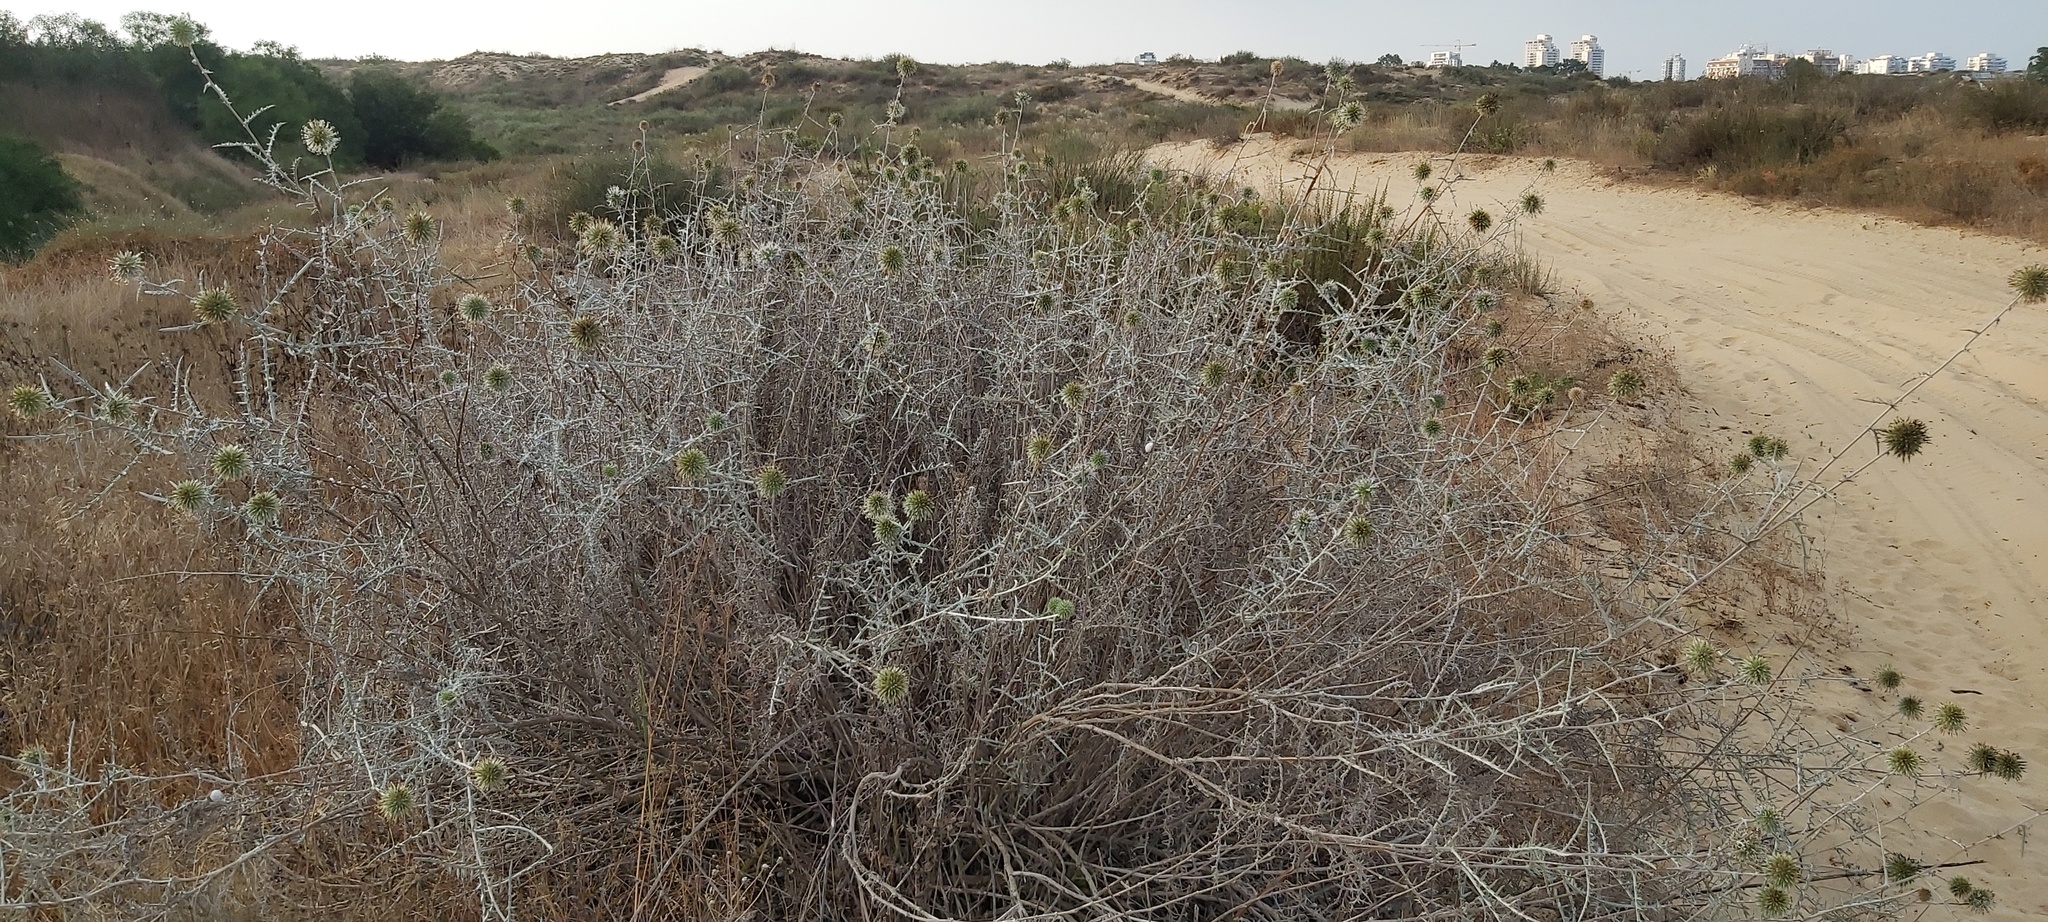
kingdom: Plantae
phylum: Tracheophyta
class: Magnoliopsida
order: Asterales
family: Asteraceae
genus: Echinops
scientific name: Echinops adenocaulos
